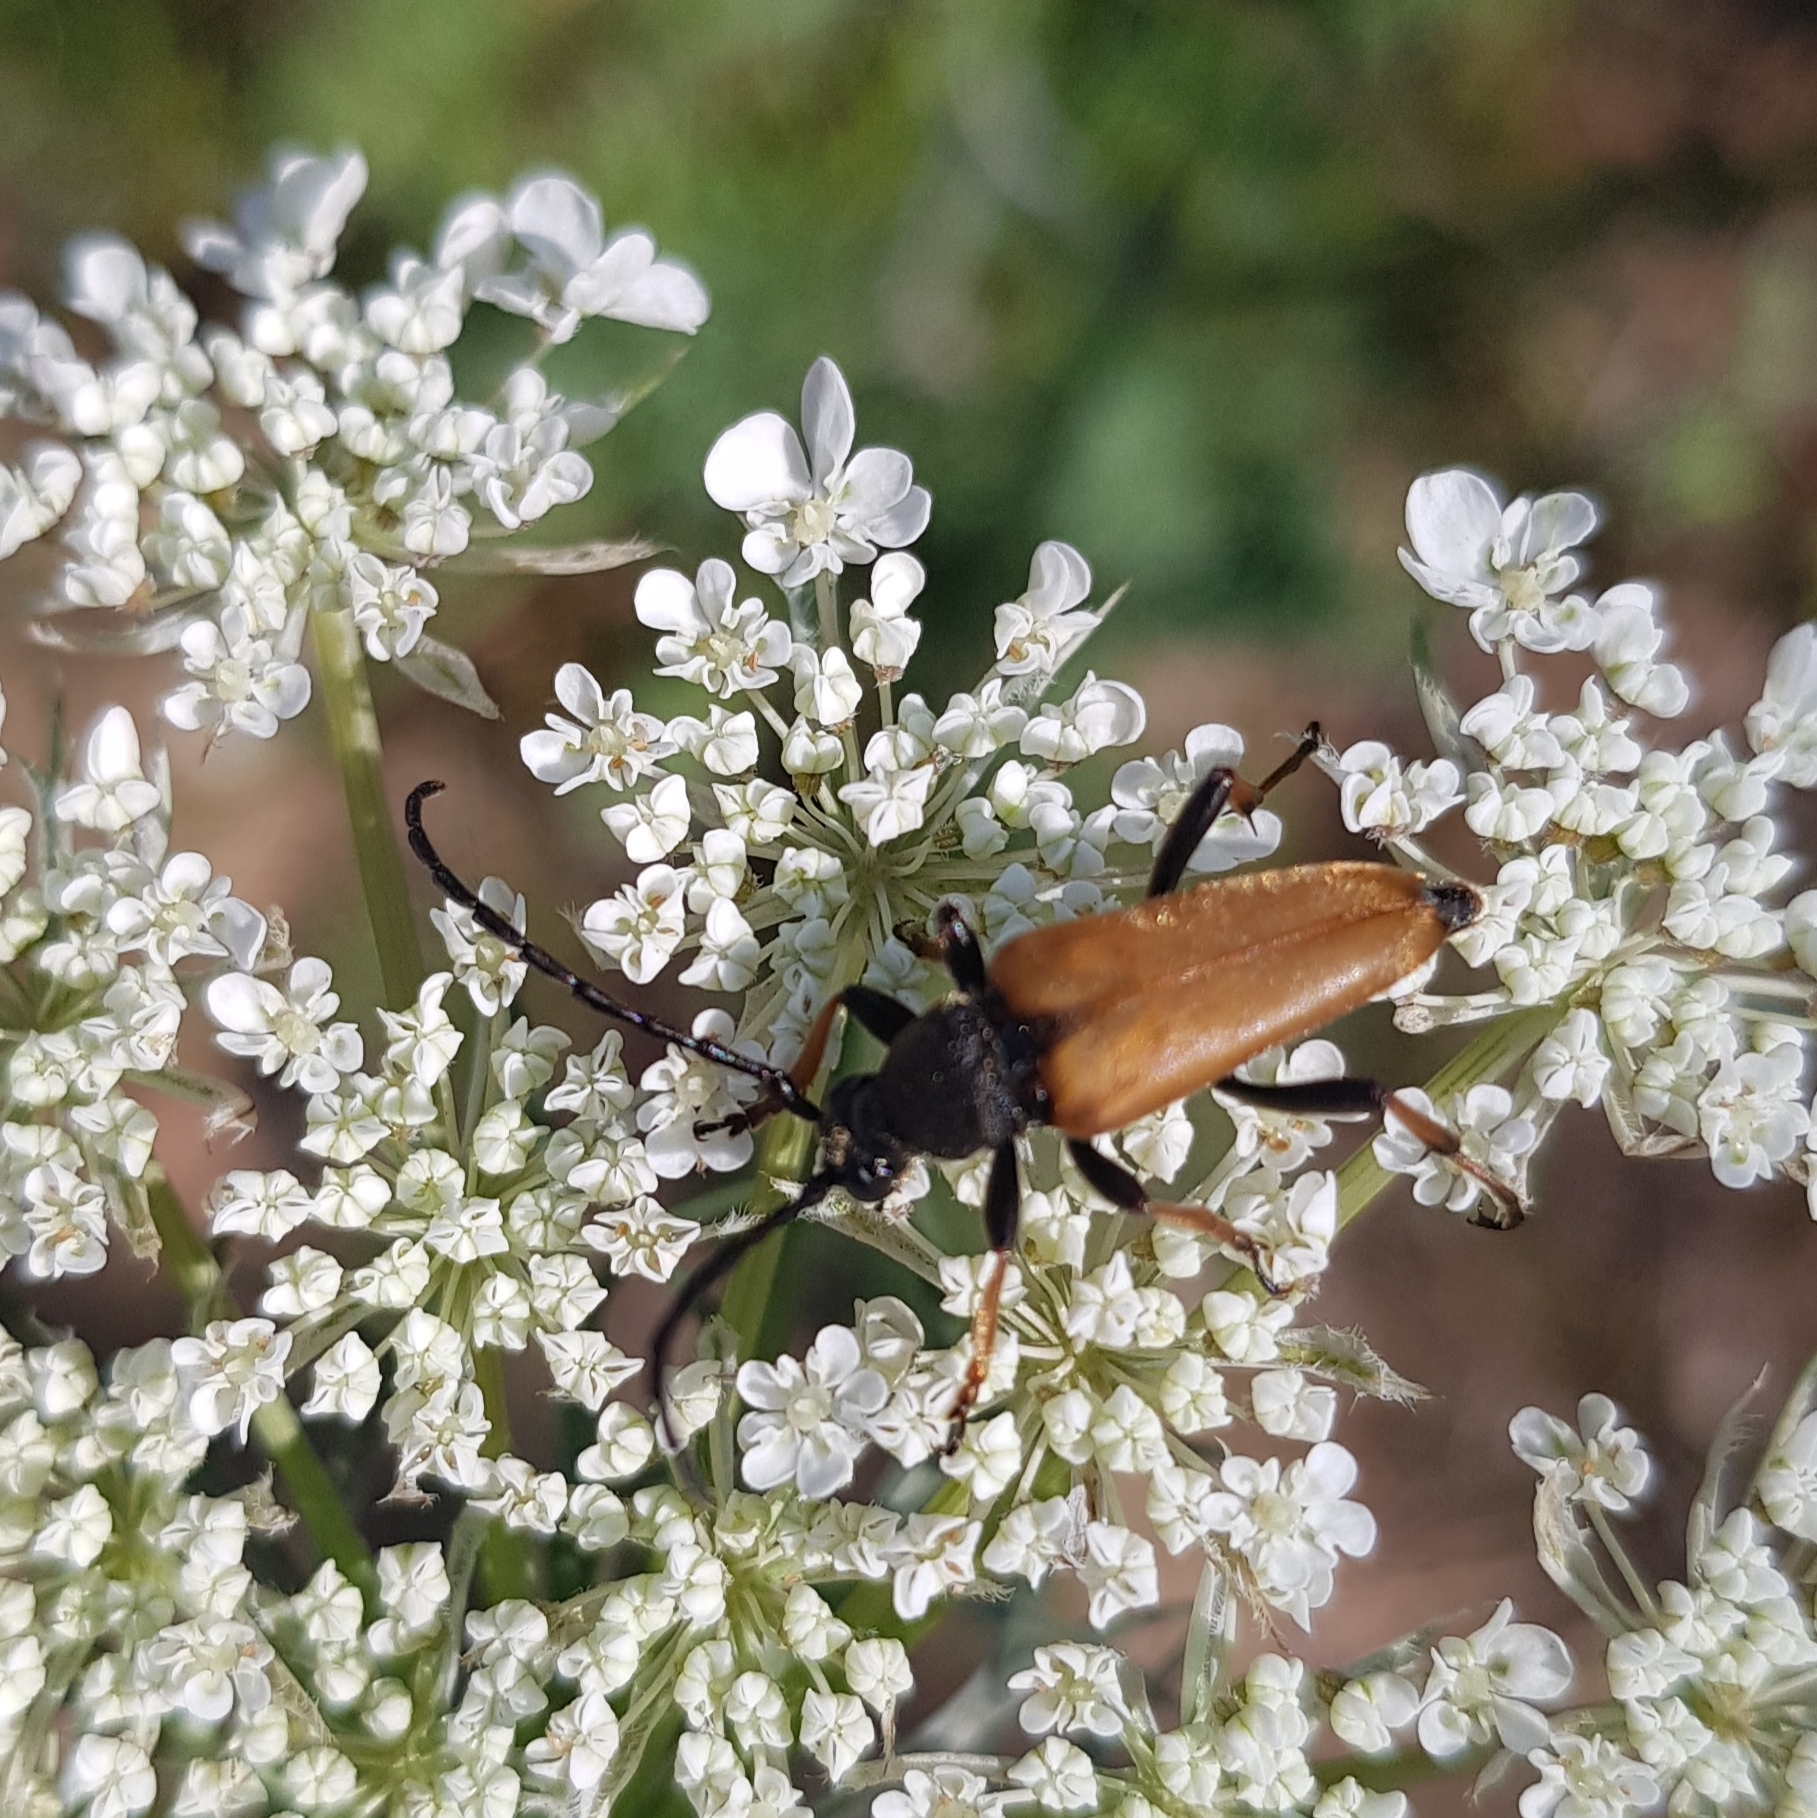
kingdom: Animalia
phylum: Arthropoda
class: Insecta
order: Coleoptera
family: Cerambycidae
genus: Stictoleptura
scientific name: Stictoleptura rubra
